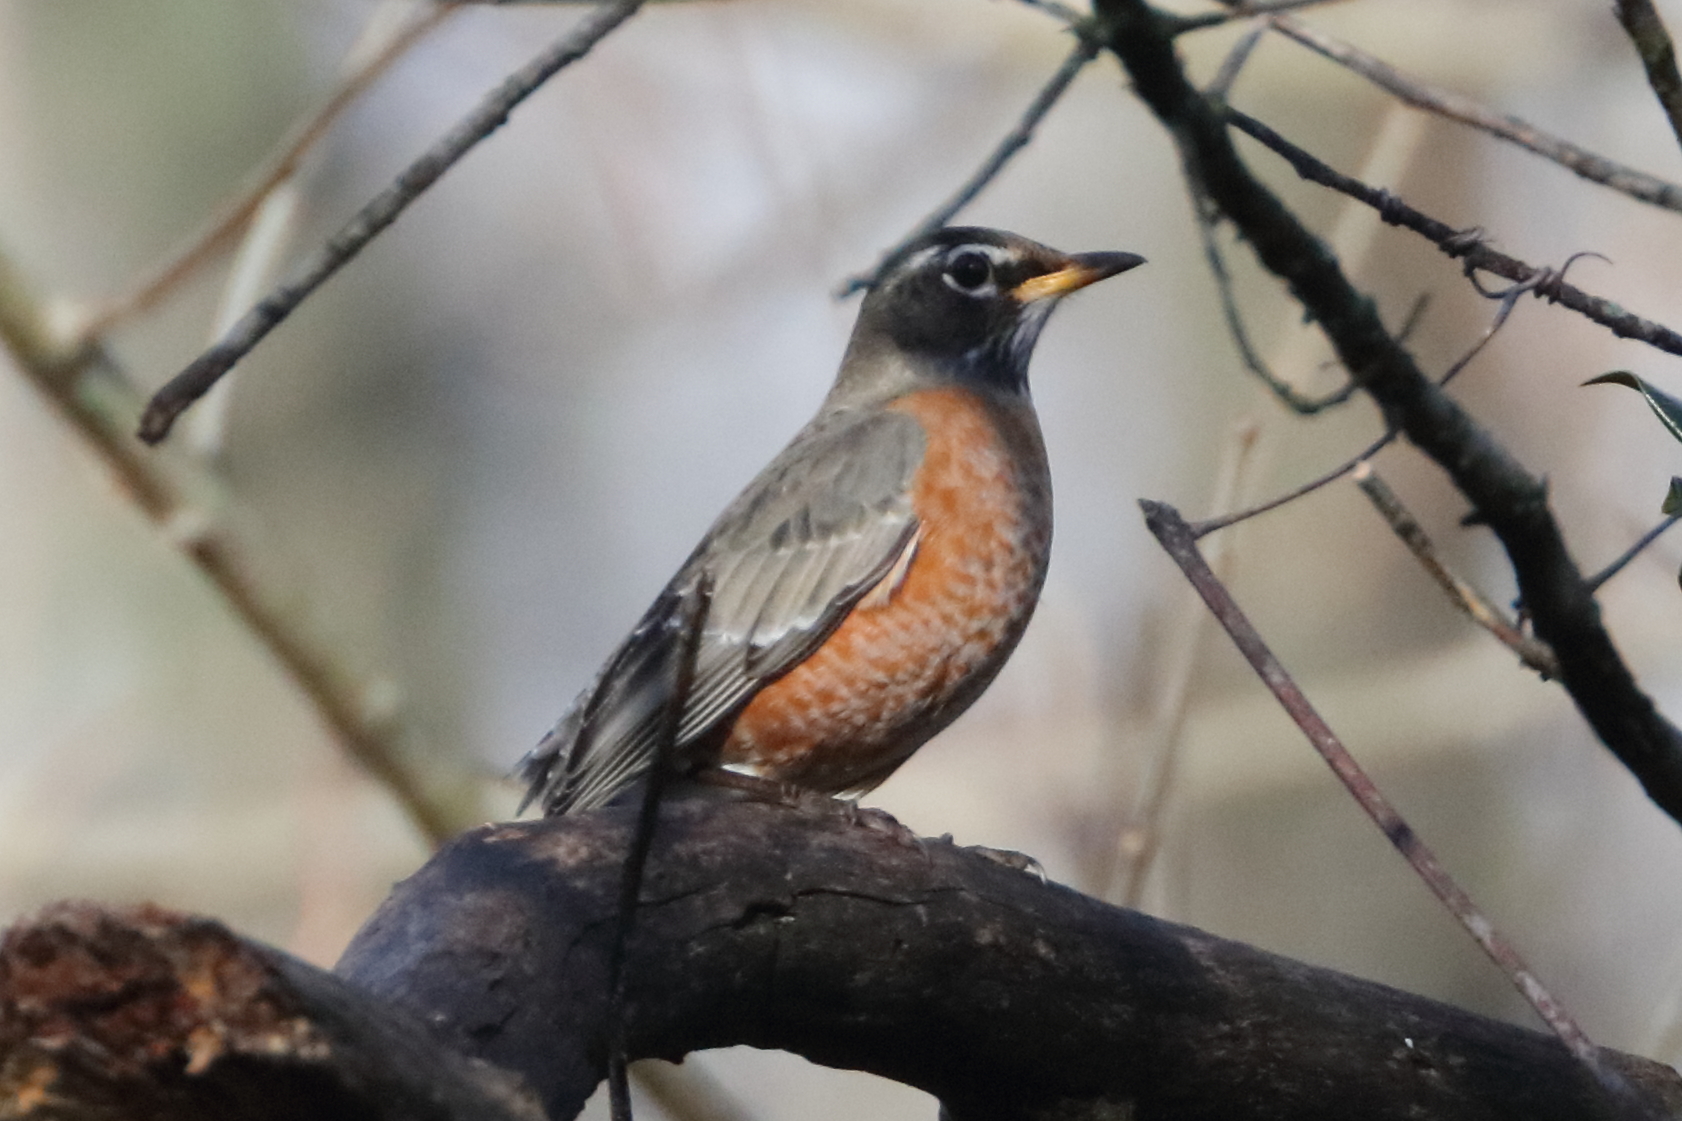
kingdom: Animalia
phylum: Chordata
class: Aves
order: Passeriformes
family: Turdidae
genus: Turdus
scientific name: Turdus migratorius
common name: American robin
